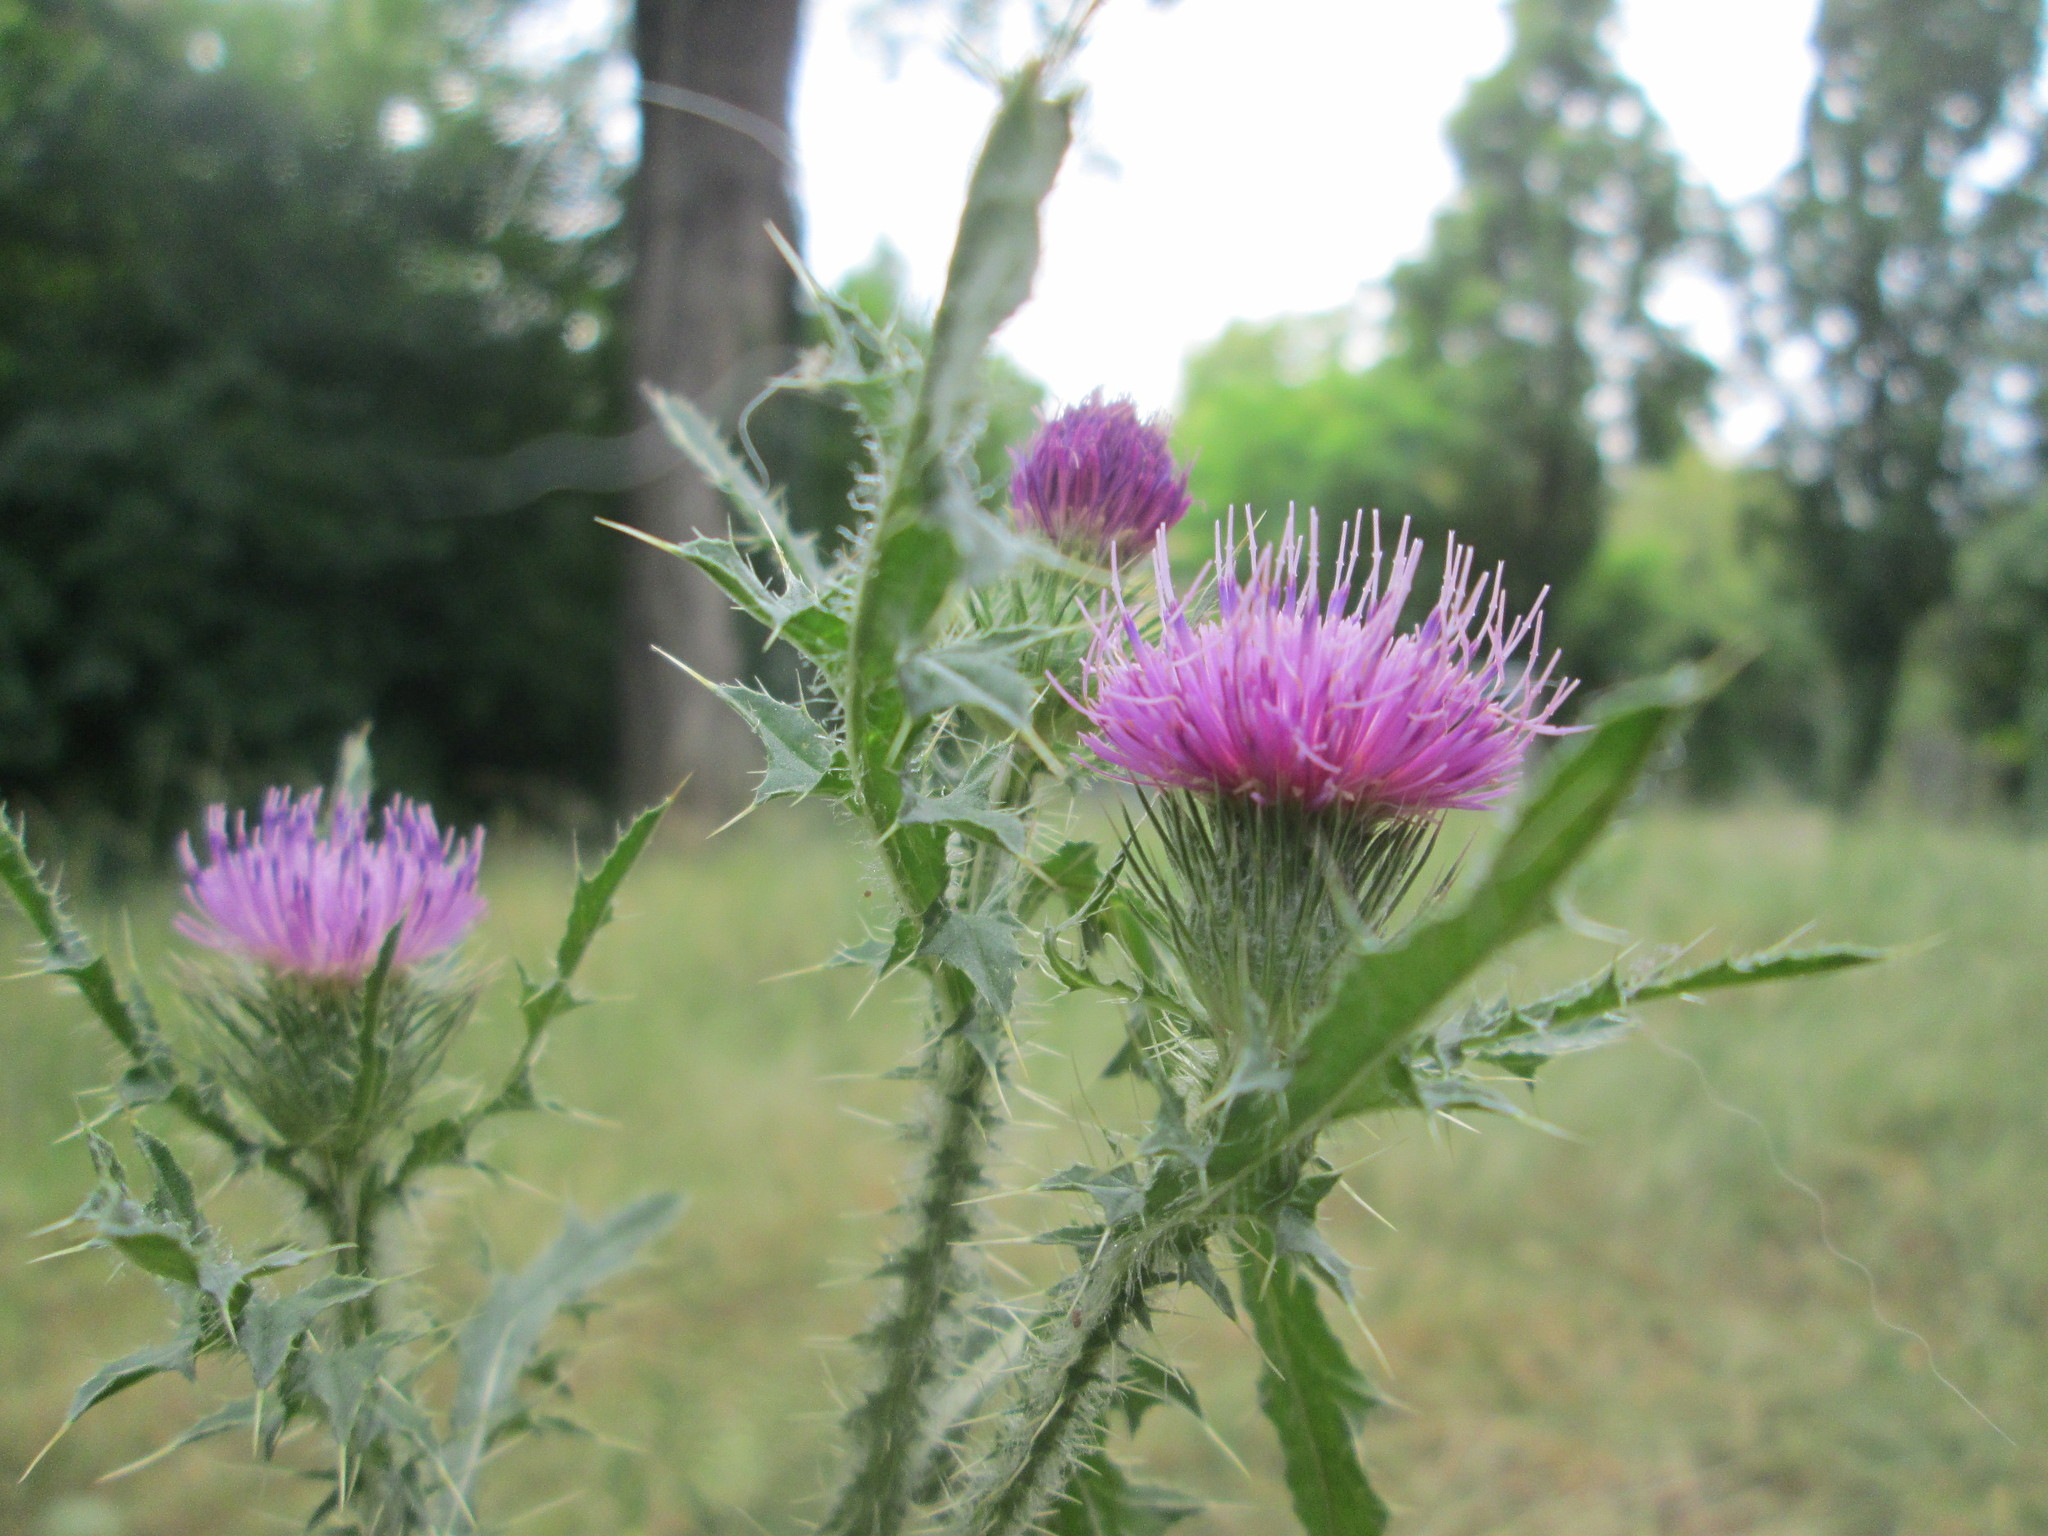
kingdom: Plantae
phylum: Tracheophyta
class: Magnoliopsida
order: Asterales
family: Asteraceae
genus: Carduus
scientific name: Carduus acanthoides
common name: Plumeless thistle
